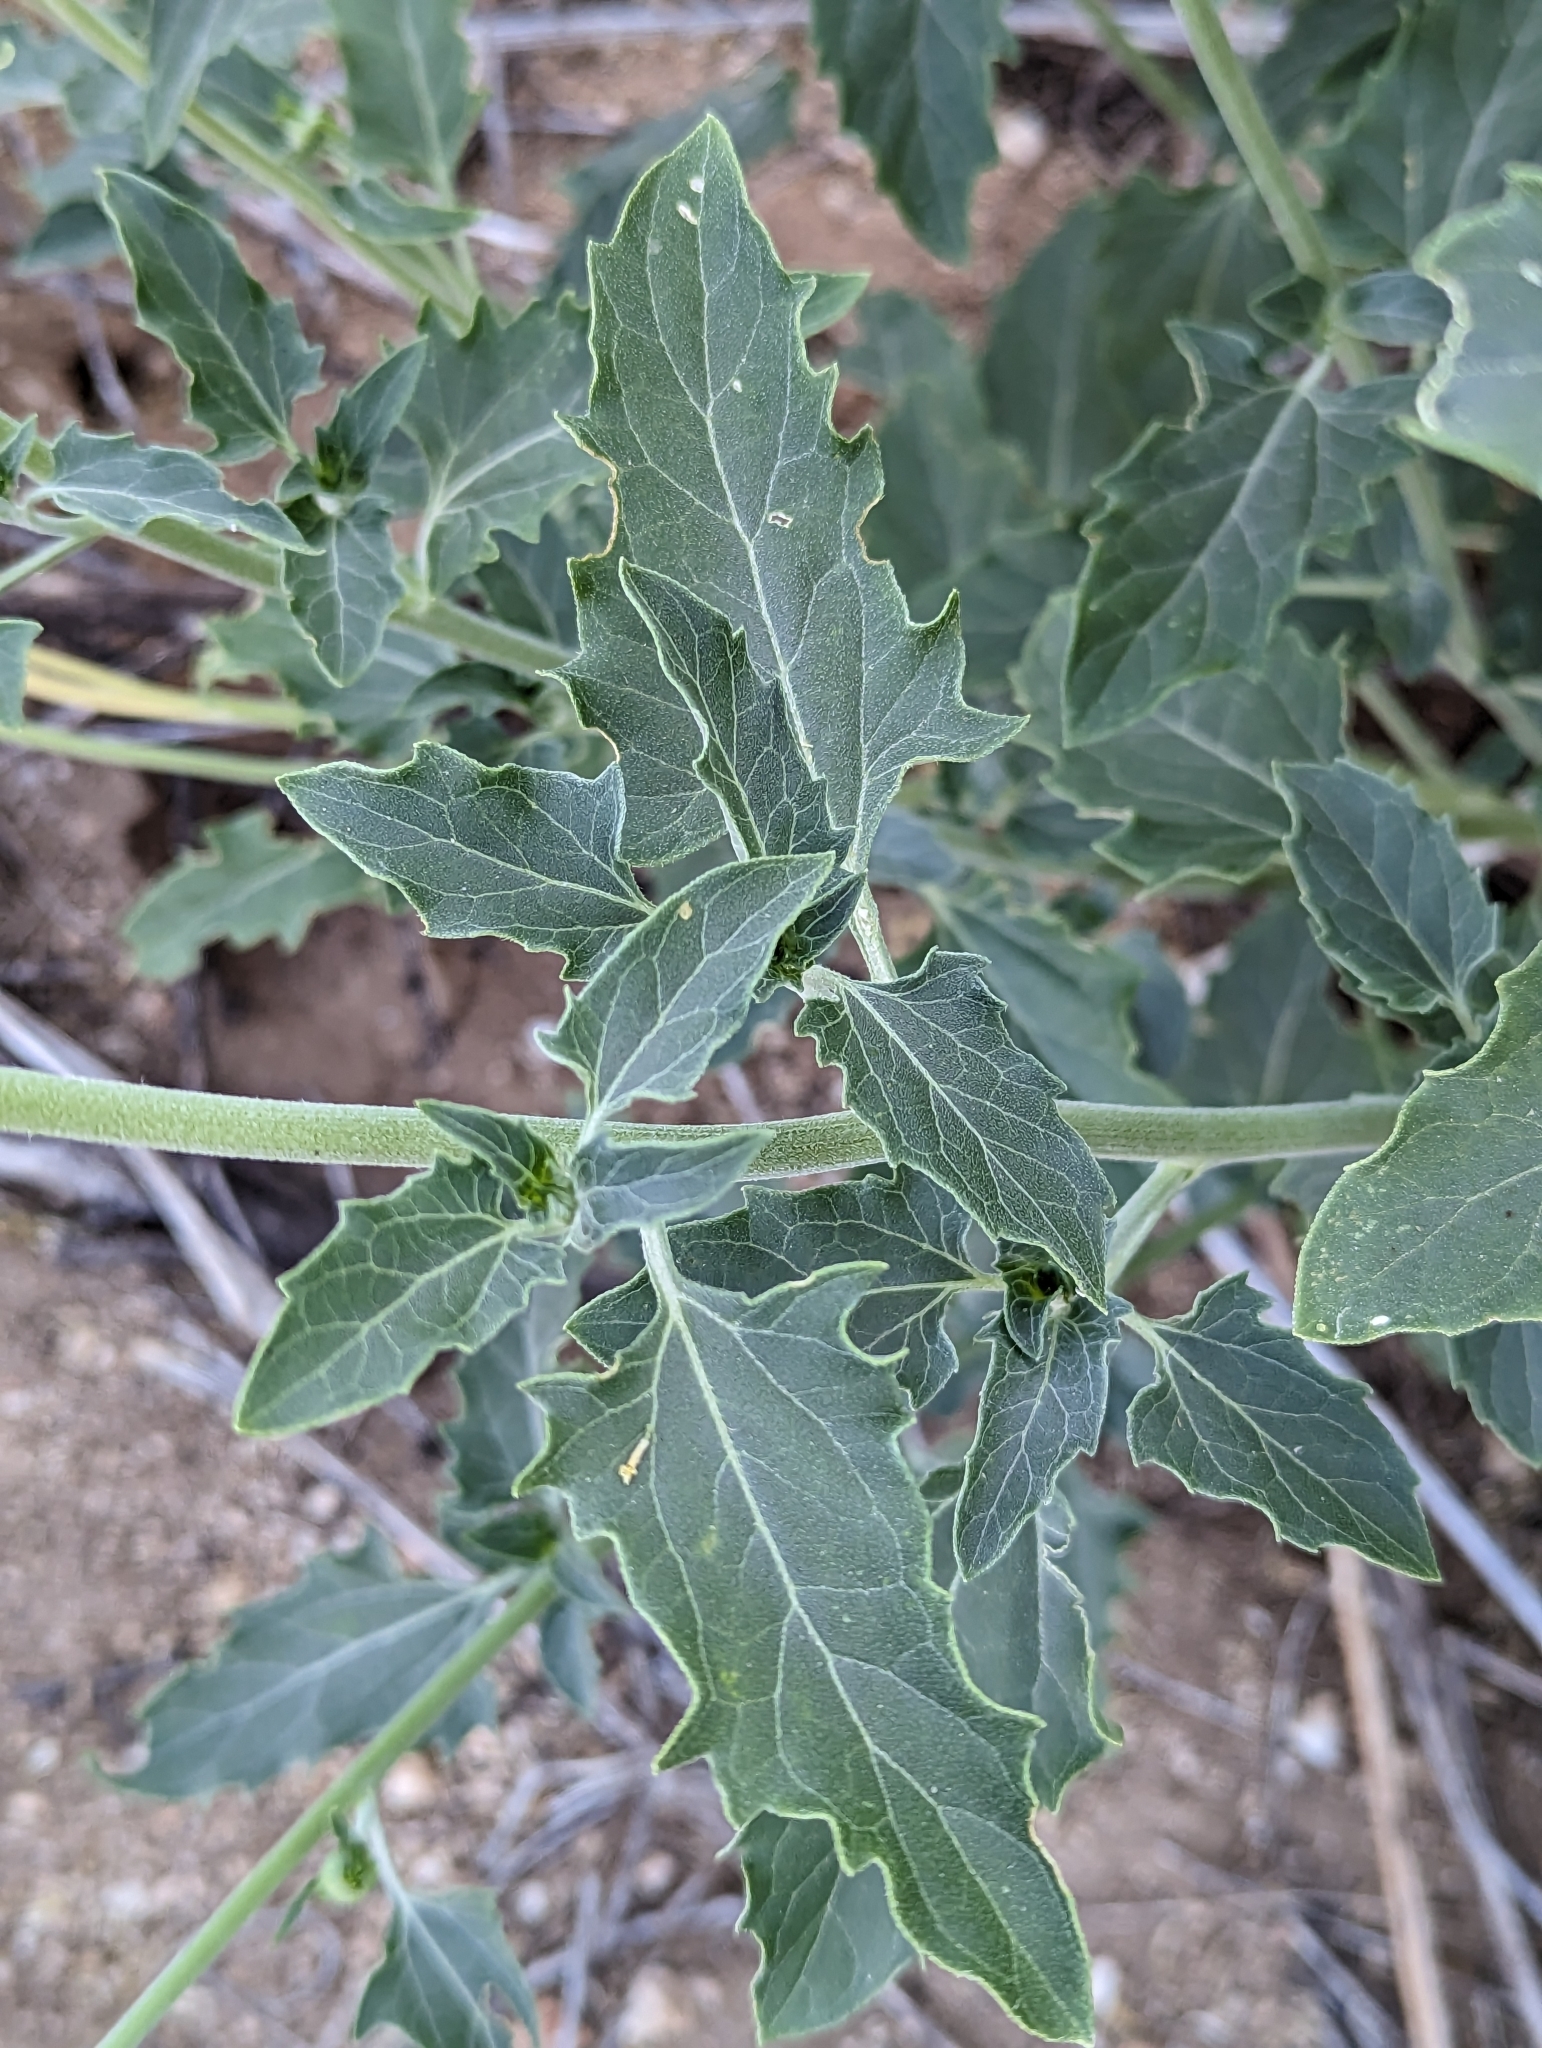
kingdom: Plantae
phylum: Tracheophyta
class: Magnoliopsida
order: Asterales
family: Asteraceae
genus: Verbesina
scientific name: Verbesina encelioides
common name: Golden crownbeard
